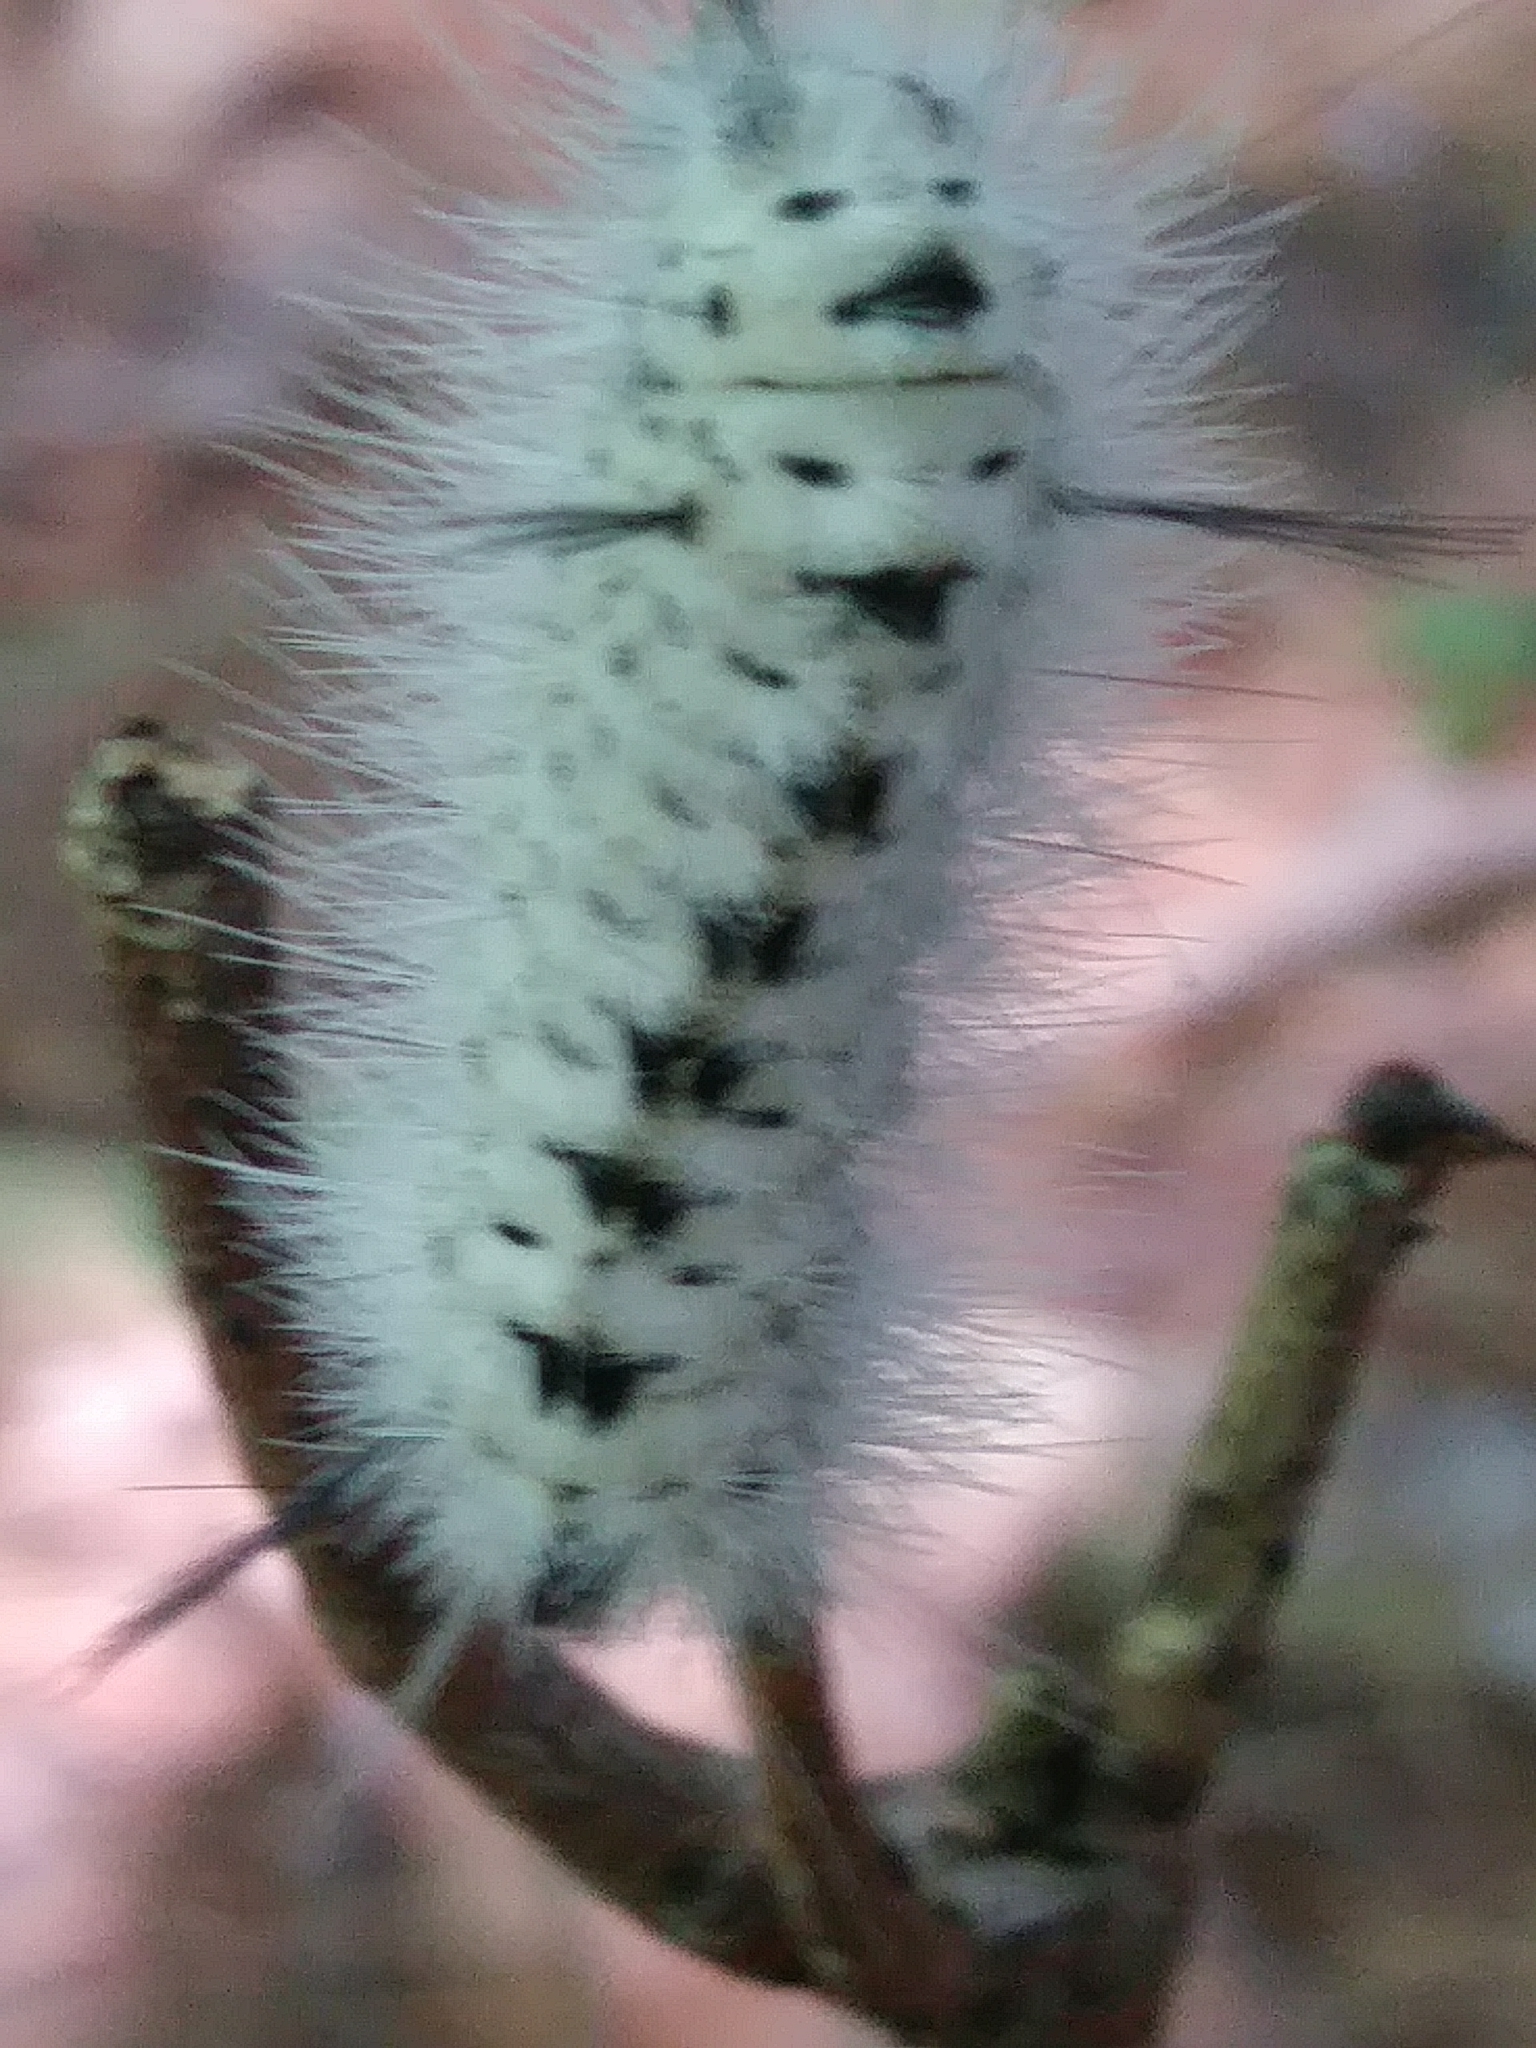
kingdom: Animalia
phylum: Arthropoda
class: Insecta
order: Lepidoptera
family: Erebidae
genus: Lophocampa
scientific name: Lophocampa caryae
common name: Hickory tussock moth
